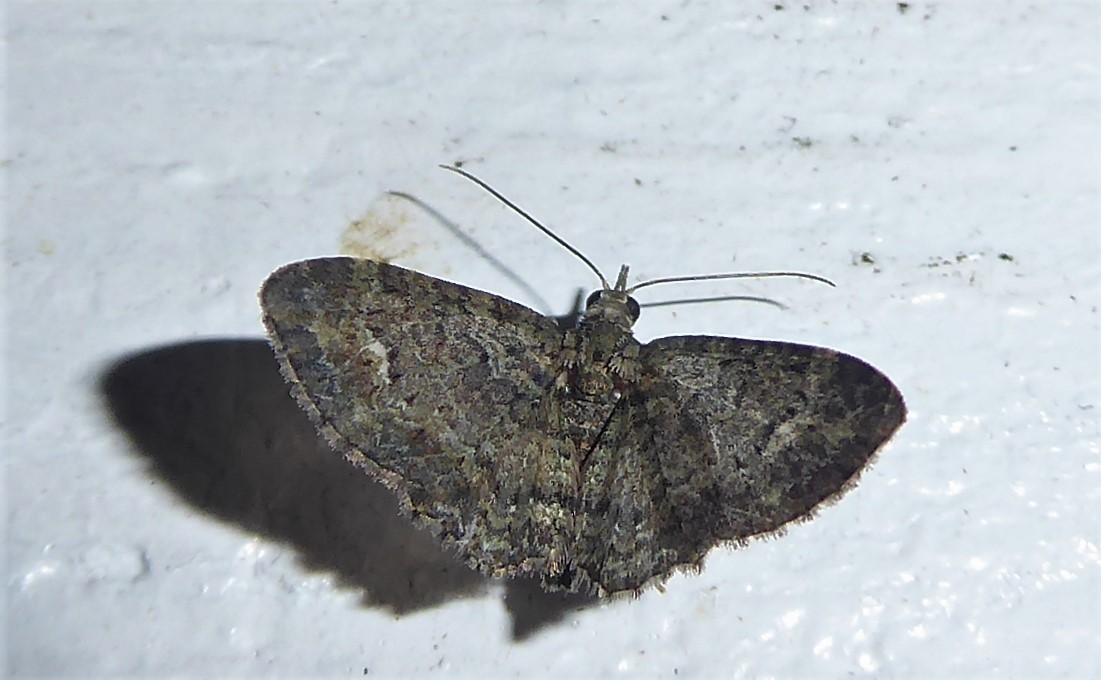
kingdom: Animalia
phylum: Arthropoda
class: Insecta
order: Lepidoptera
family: Geometridae
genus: Pasiphilodes
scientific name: Pasiphilodes testulata
